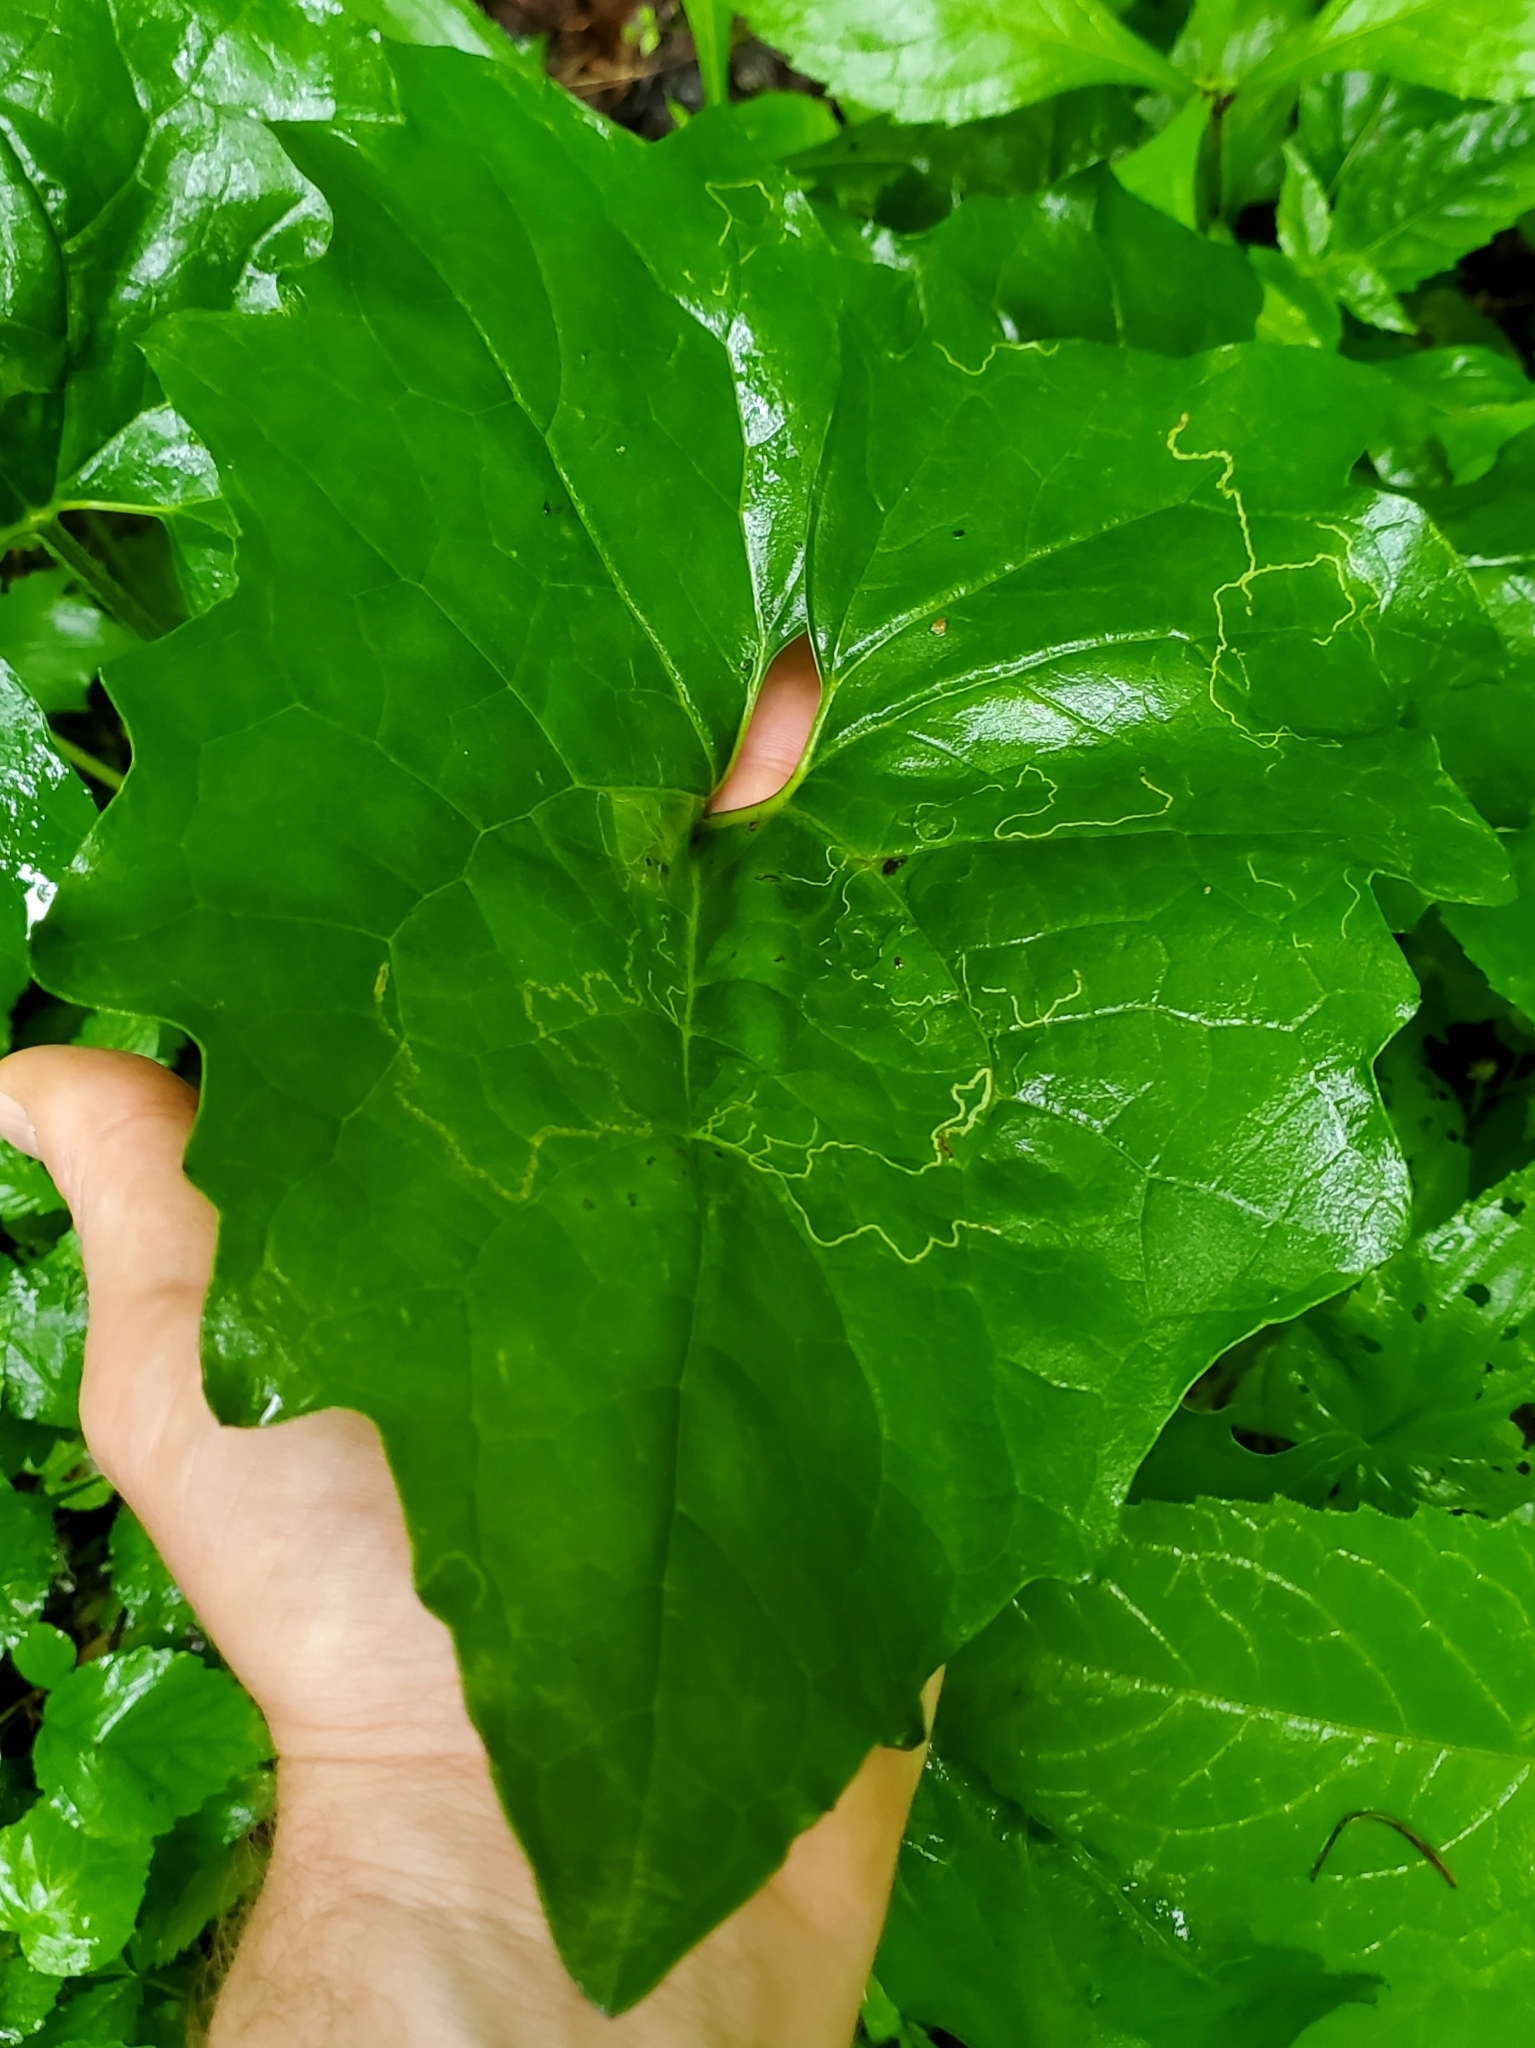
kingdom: Animalia
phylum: Arthropoda
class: Insecta
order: Lepidoptera
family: Gracillariidae
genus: Phyllocnistis
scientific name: Phyllocnistis insignis
